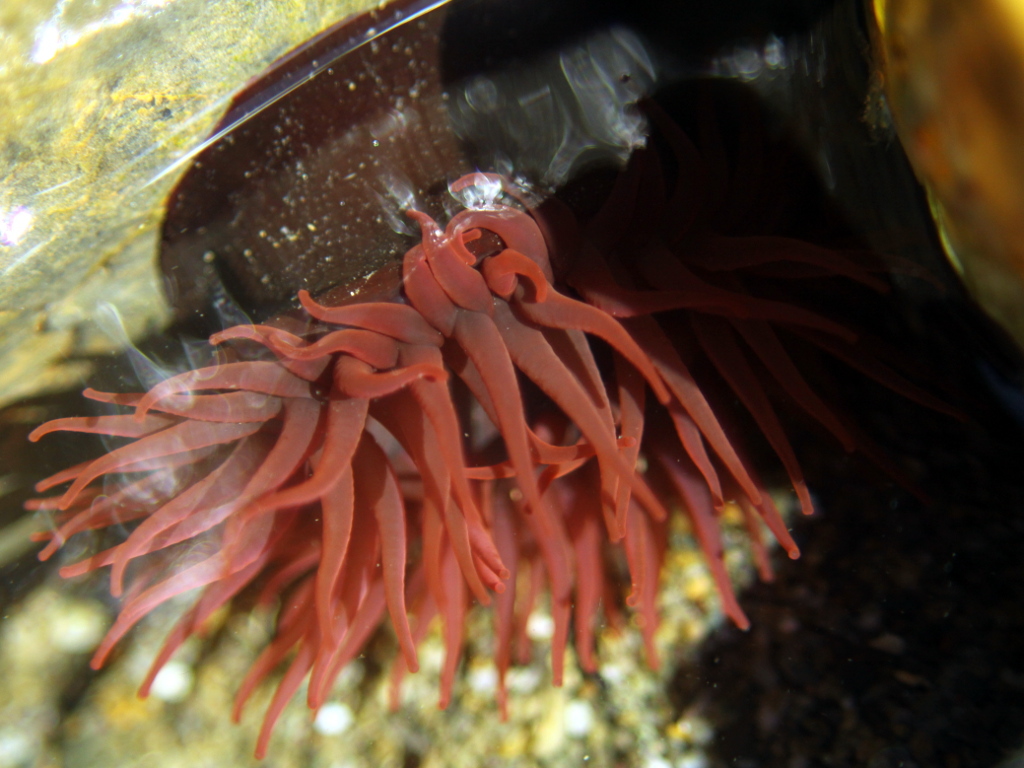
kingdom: Animalia
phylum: Cnidaria
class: Anthozoa
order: Actiniaria
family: Actiniidae
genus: Actinia
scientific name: Actinia tenebrosa
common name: Waratah anemone
